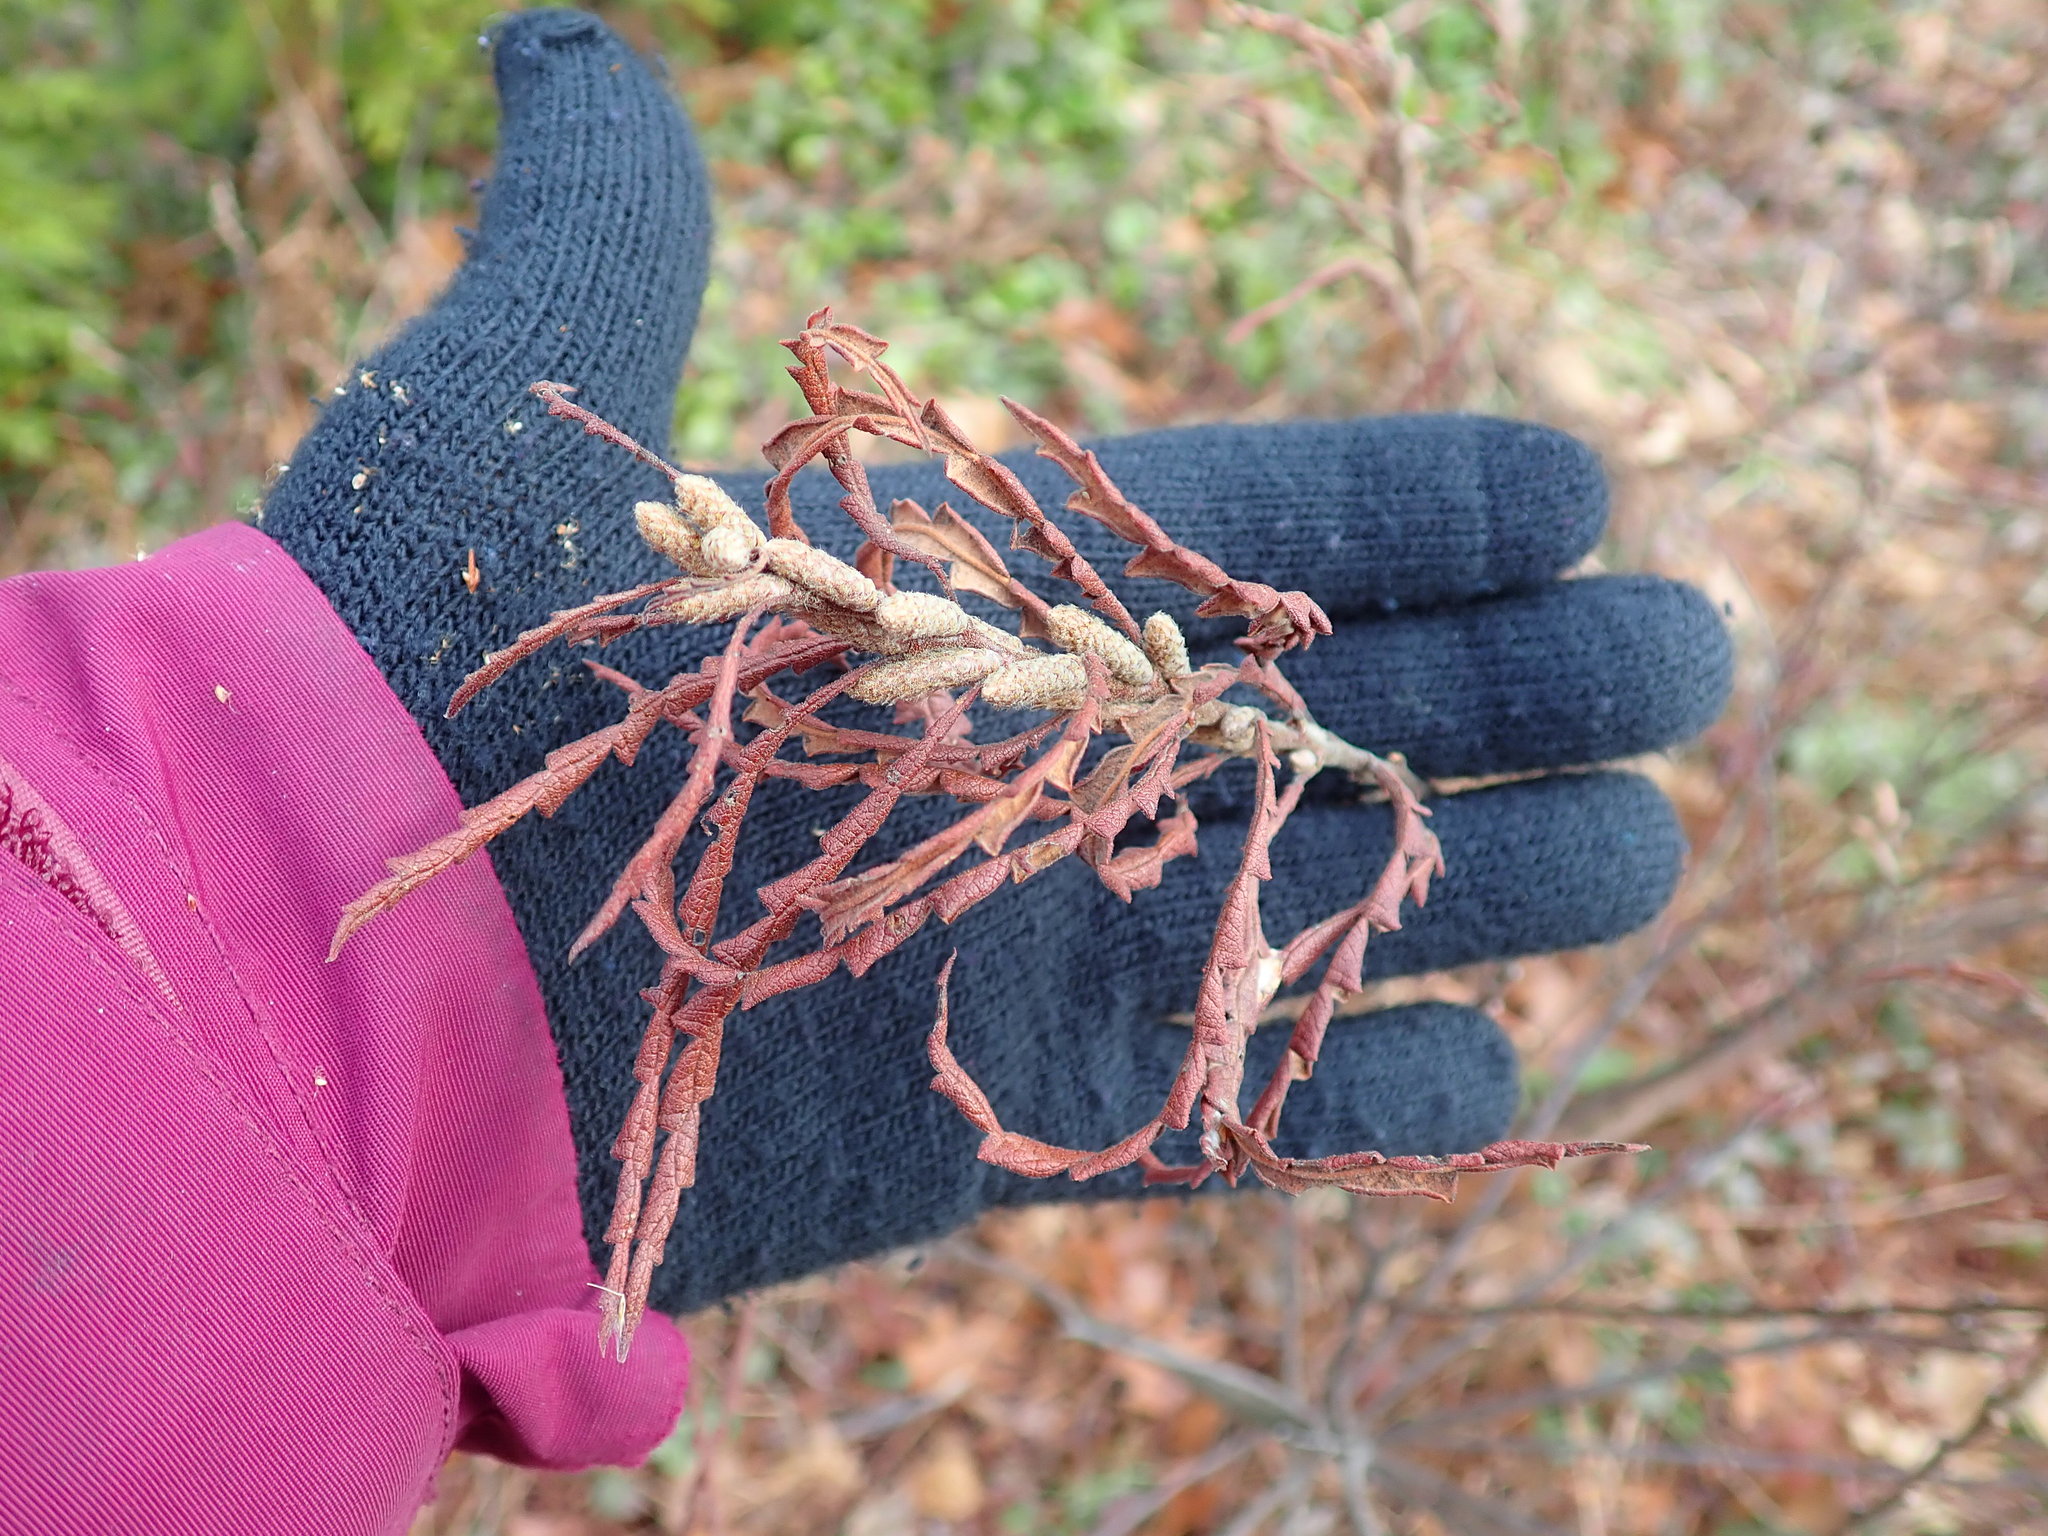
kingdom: Plantae
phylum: Tracheophyta
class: Magnoliopsida
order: Fagales
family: Myricaceae
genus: Comptonia
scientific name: Comptonia peregrina
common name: Sweet-fern
